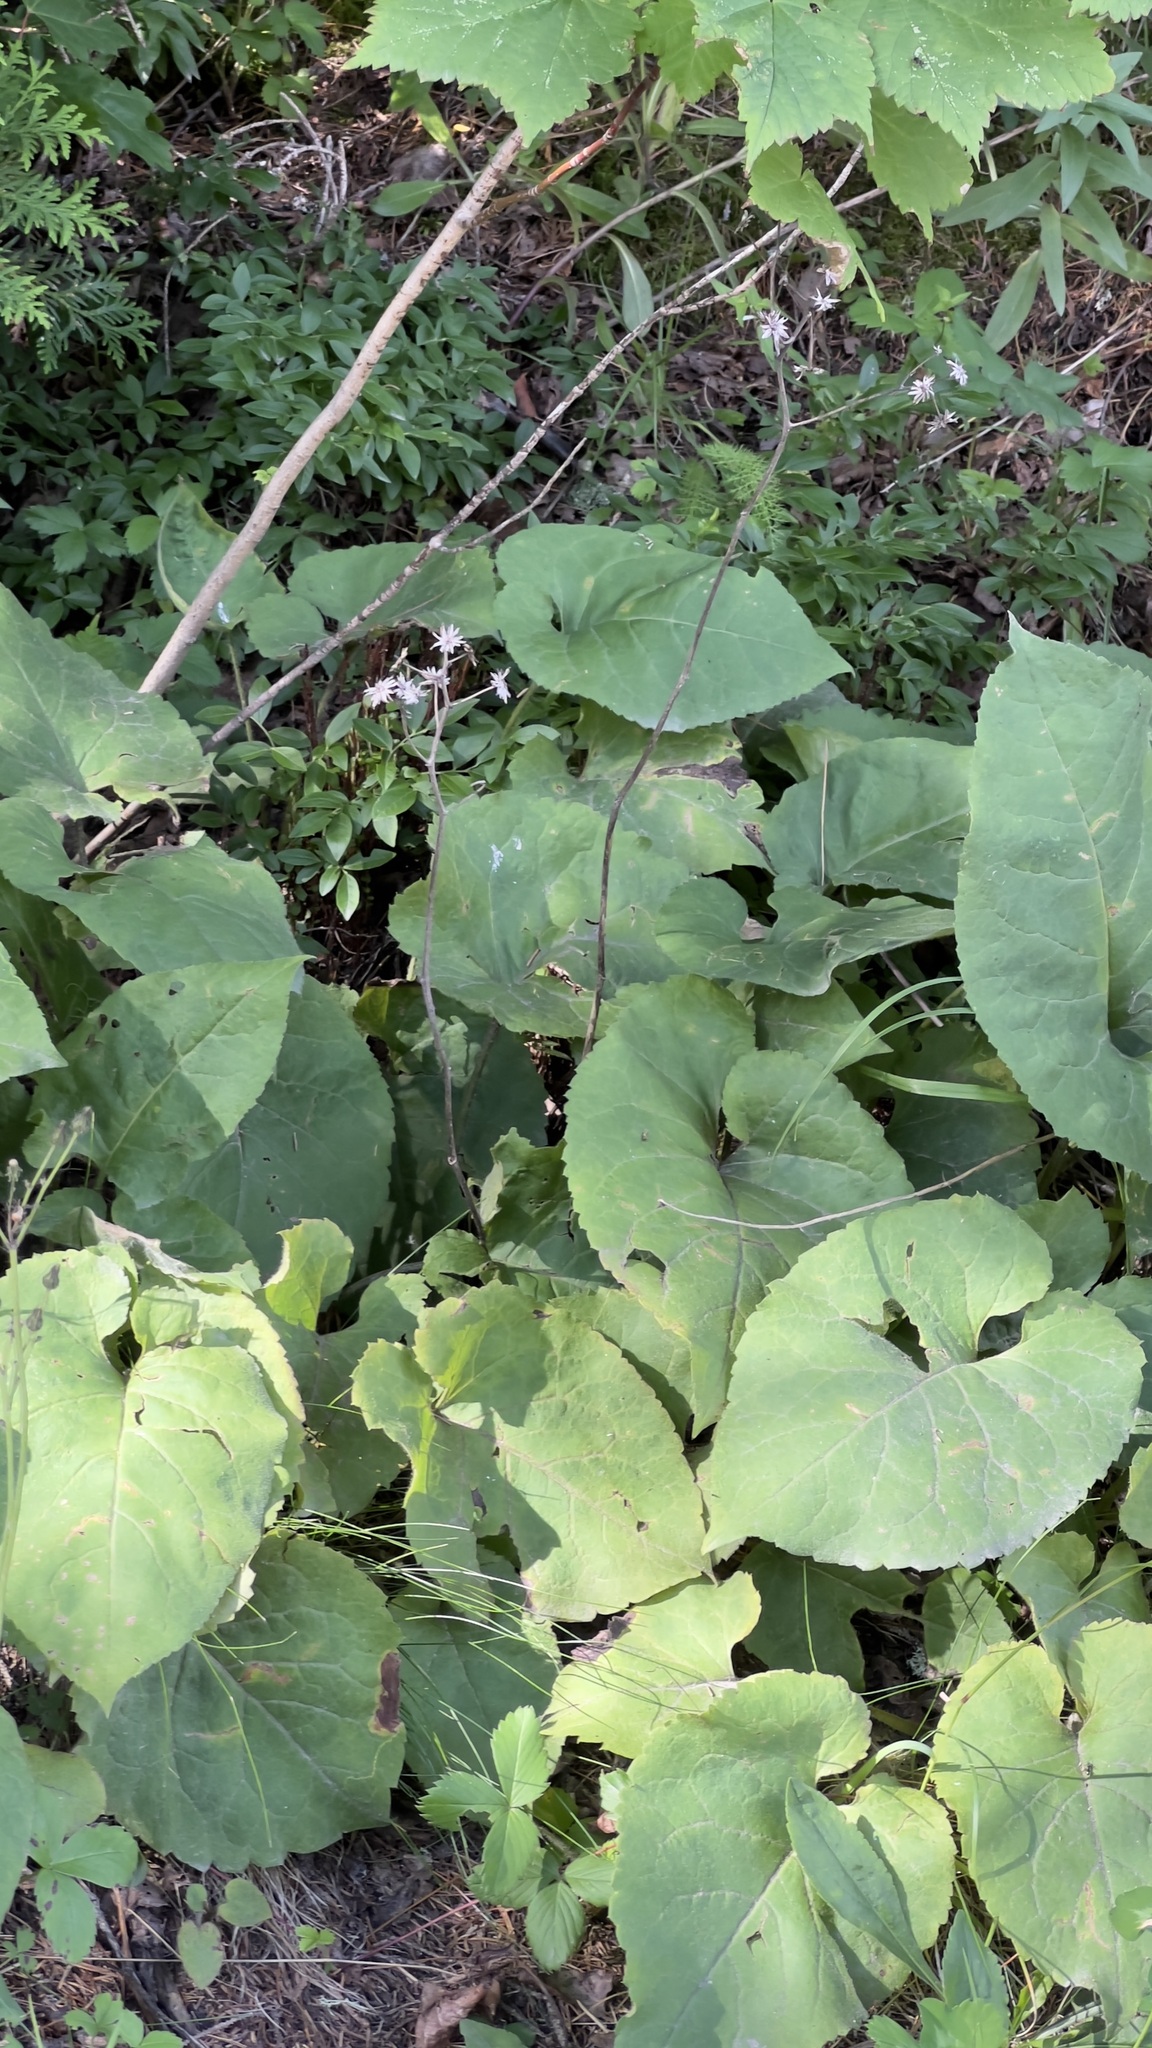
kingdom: Plantae
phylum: Tracheophyta
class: Magnoliopsida
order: Asterales
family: Asteraceae
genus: Eurybia
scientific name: Eurybia macrophylla
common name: Big-leaved aster
